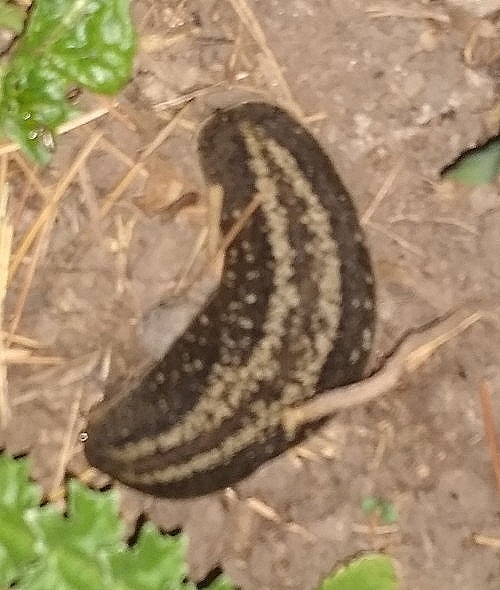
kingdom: Animalia
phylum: Mollusca
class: Gastropoda
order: Systellommatophora
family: Veronicellidae
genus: Phyllocaulis
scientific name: Phyllocaulis soleiformis
